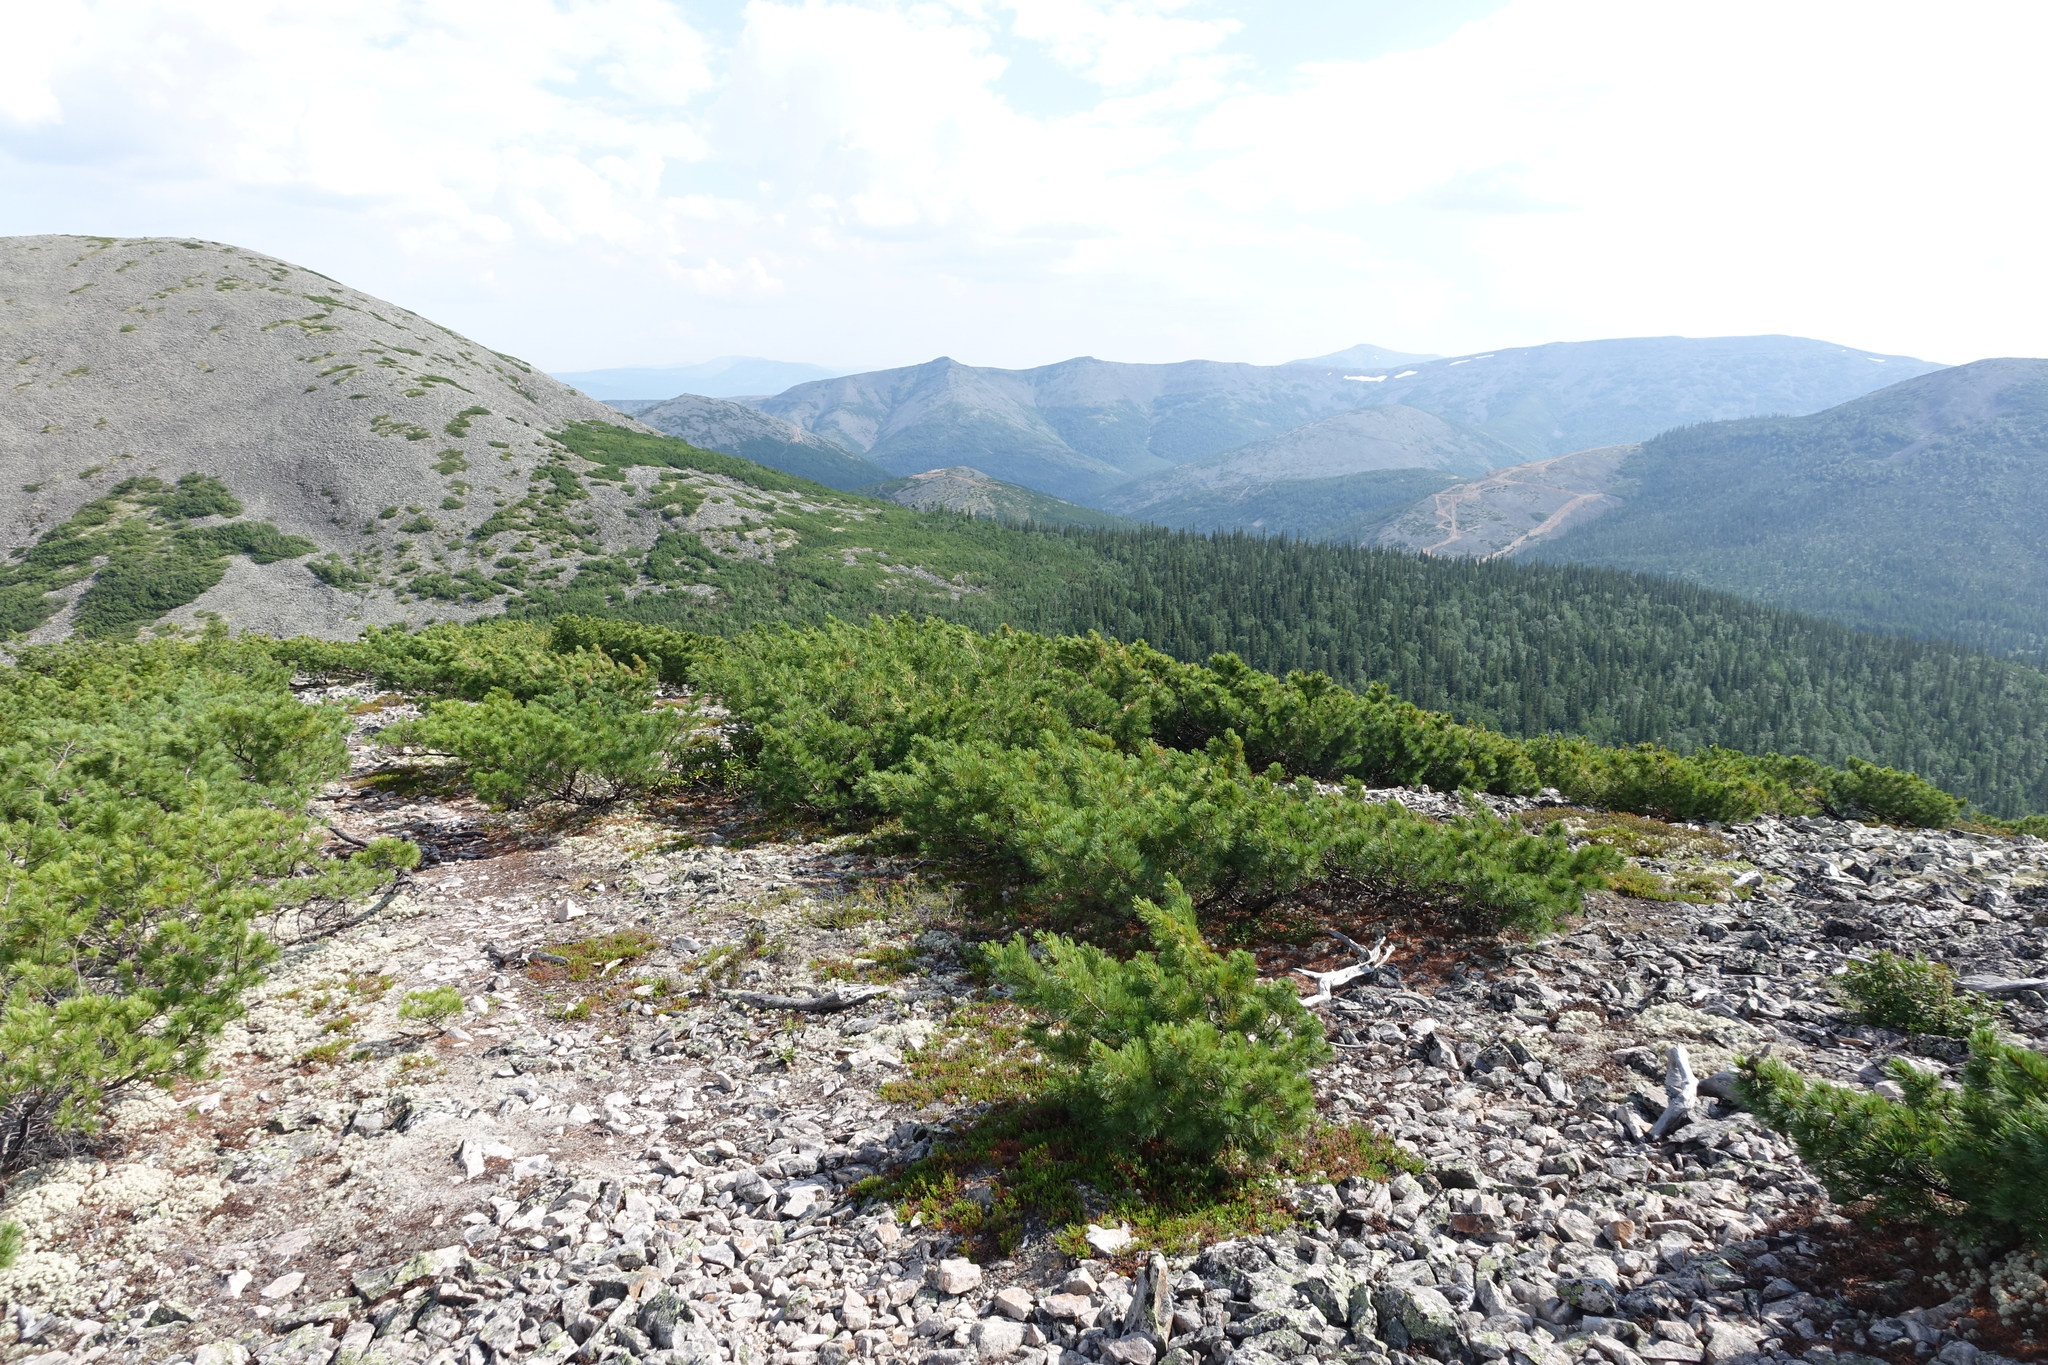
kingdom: Plantae
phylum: Tracheophyta
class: Pinopsida
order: Pinales
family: Pinaceae
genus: Pinus
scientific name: Pinus pumila
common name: Dwarf siberian pine
